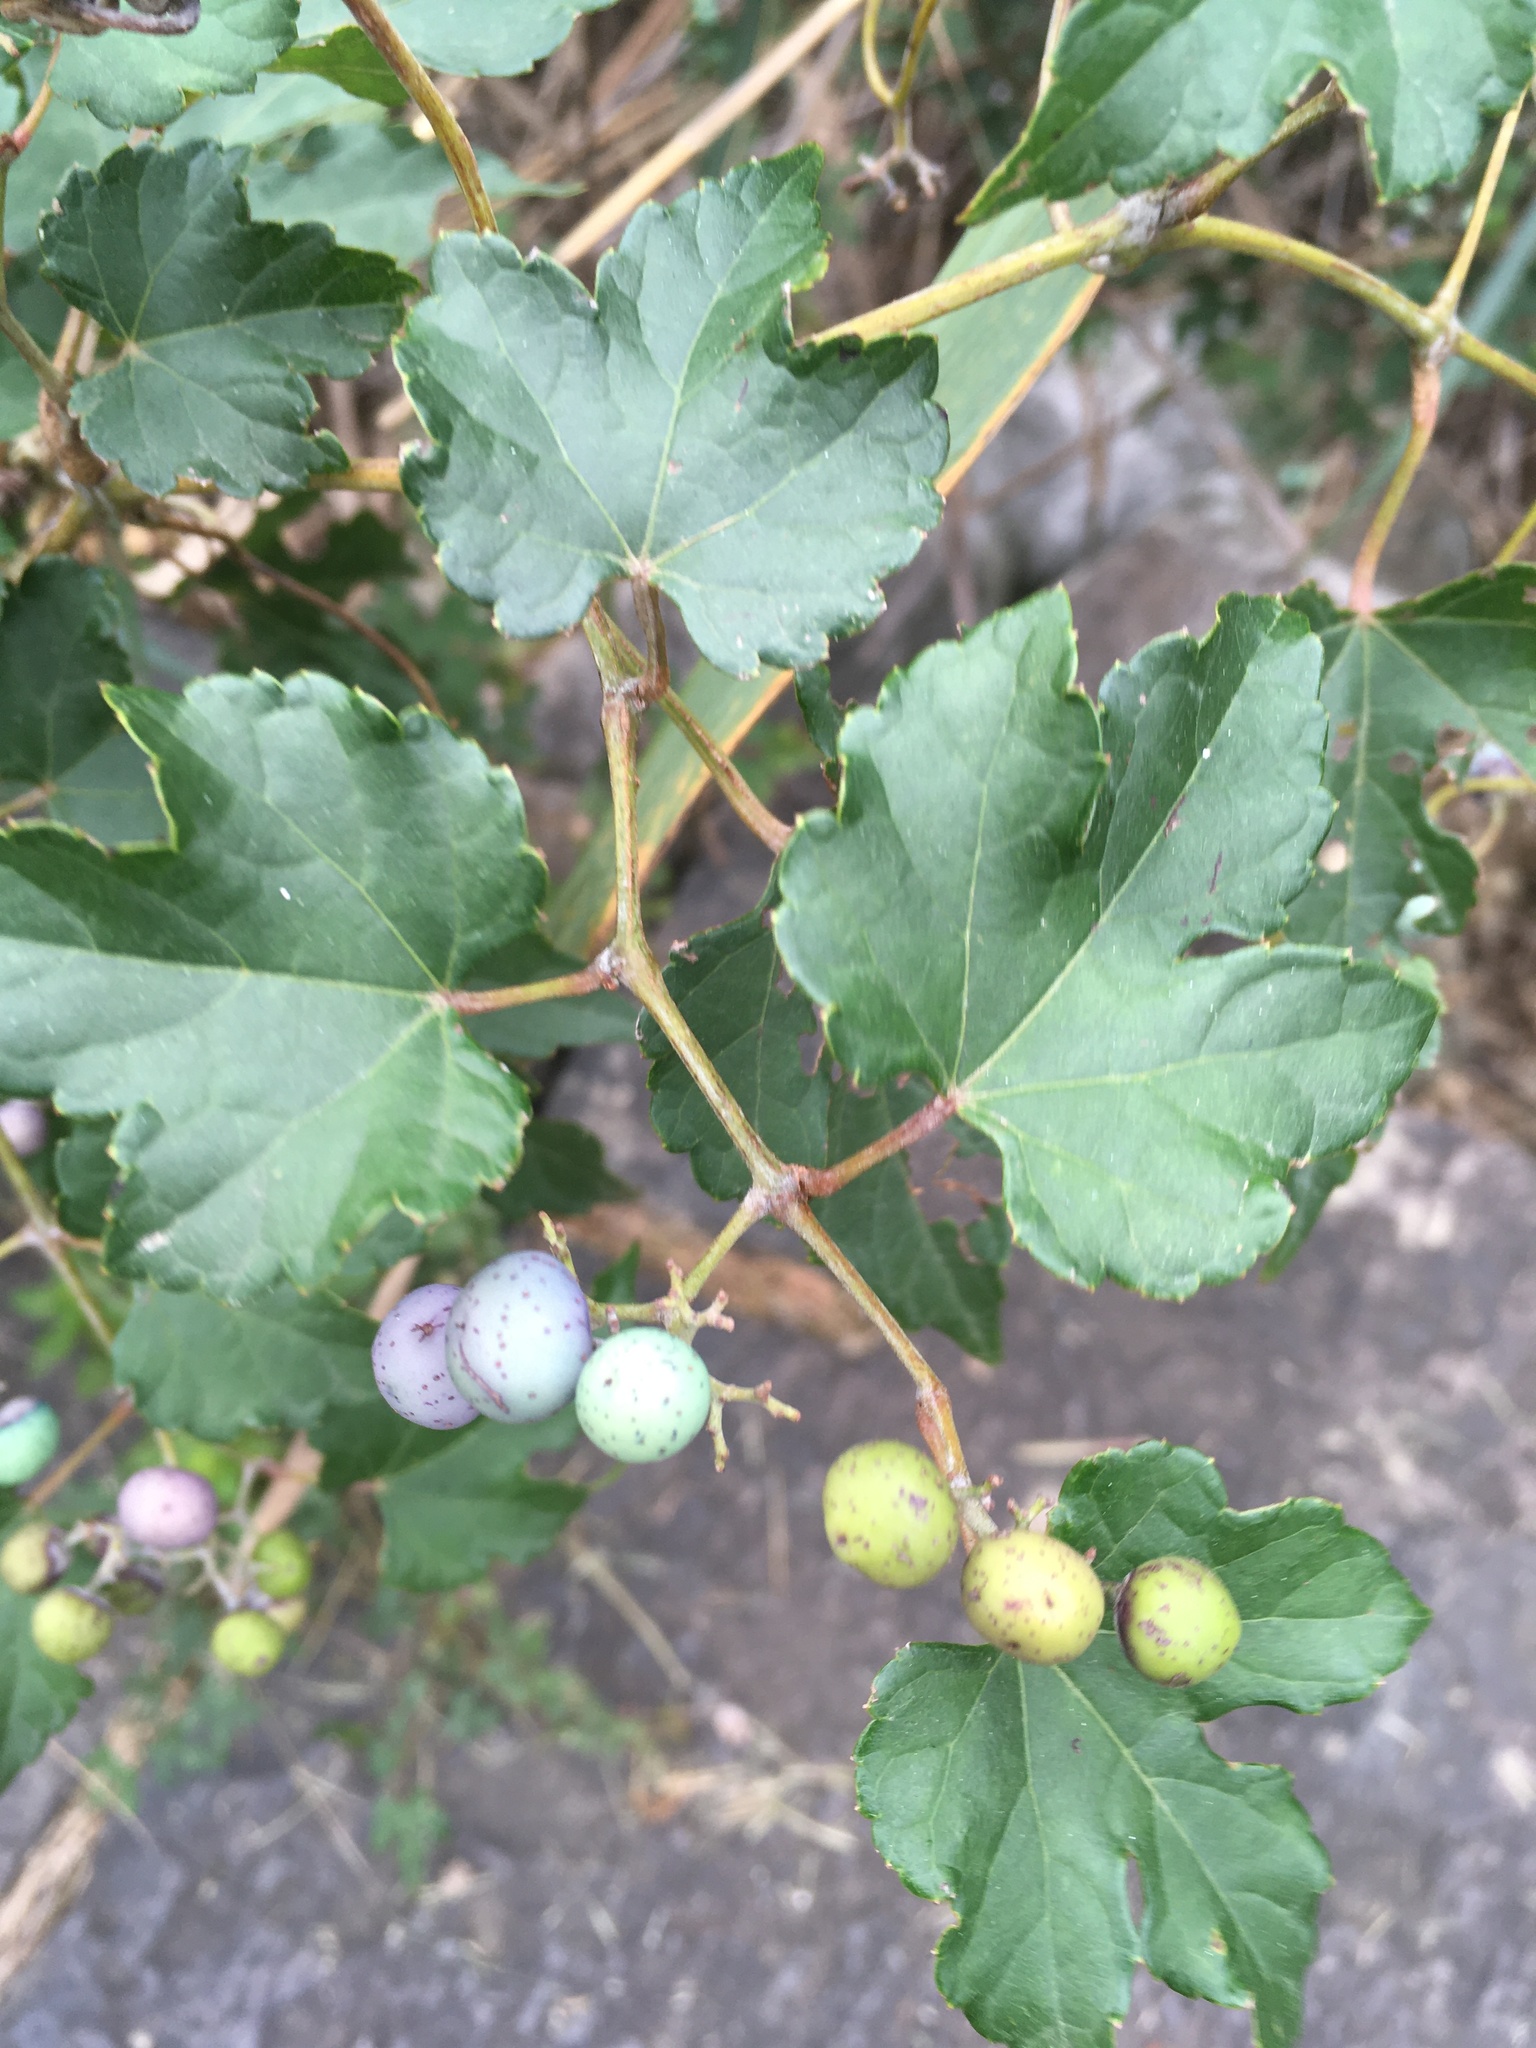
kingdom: Plantae
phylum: Tracheophyta
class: Magnoliopsida
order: Vitales
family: Vitaceae
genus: Ampelopsis
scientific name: Ampelopsis glandulosa
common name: Amur peppervine
